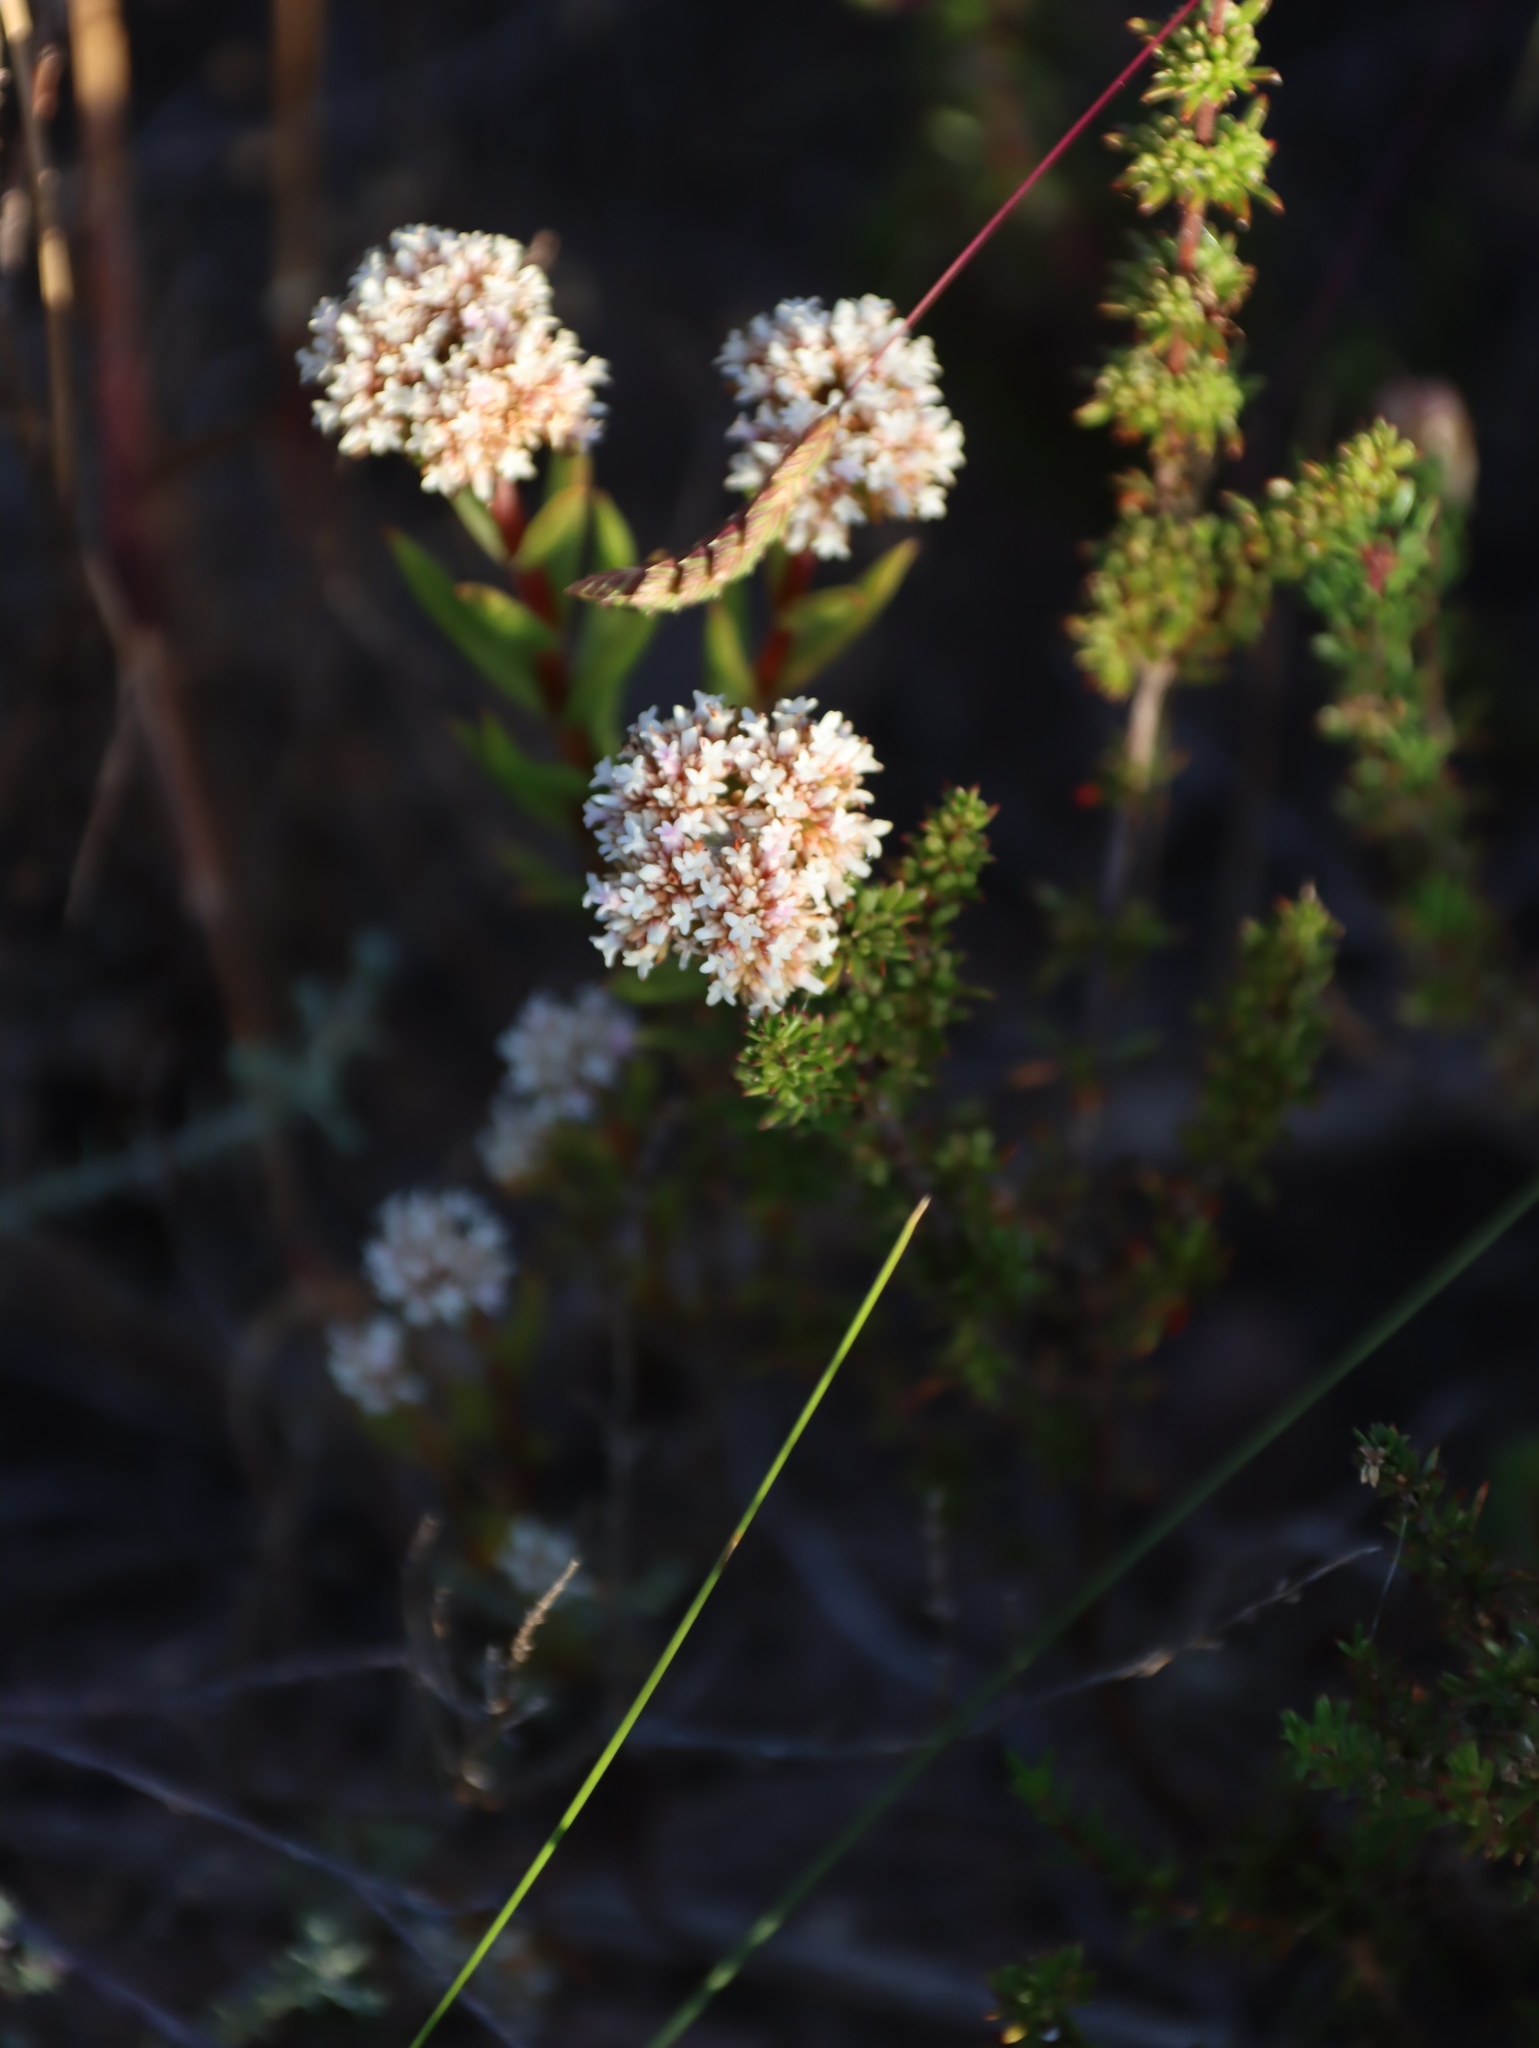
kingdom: Plantae
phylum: Tracheophyta
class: Magnoliopsida
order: Saxifragales
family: Crassulaceae
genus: Crassula
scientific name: Crassula subulata
